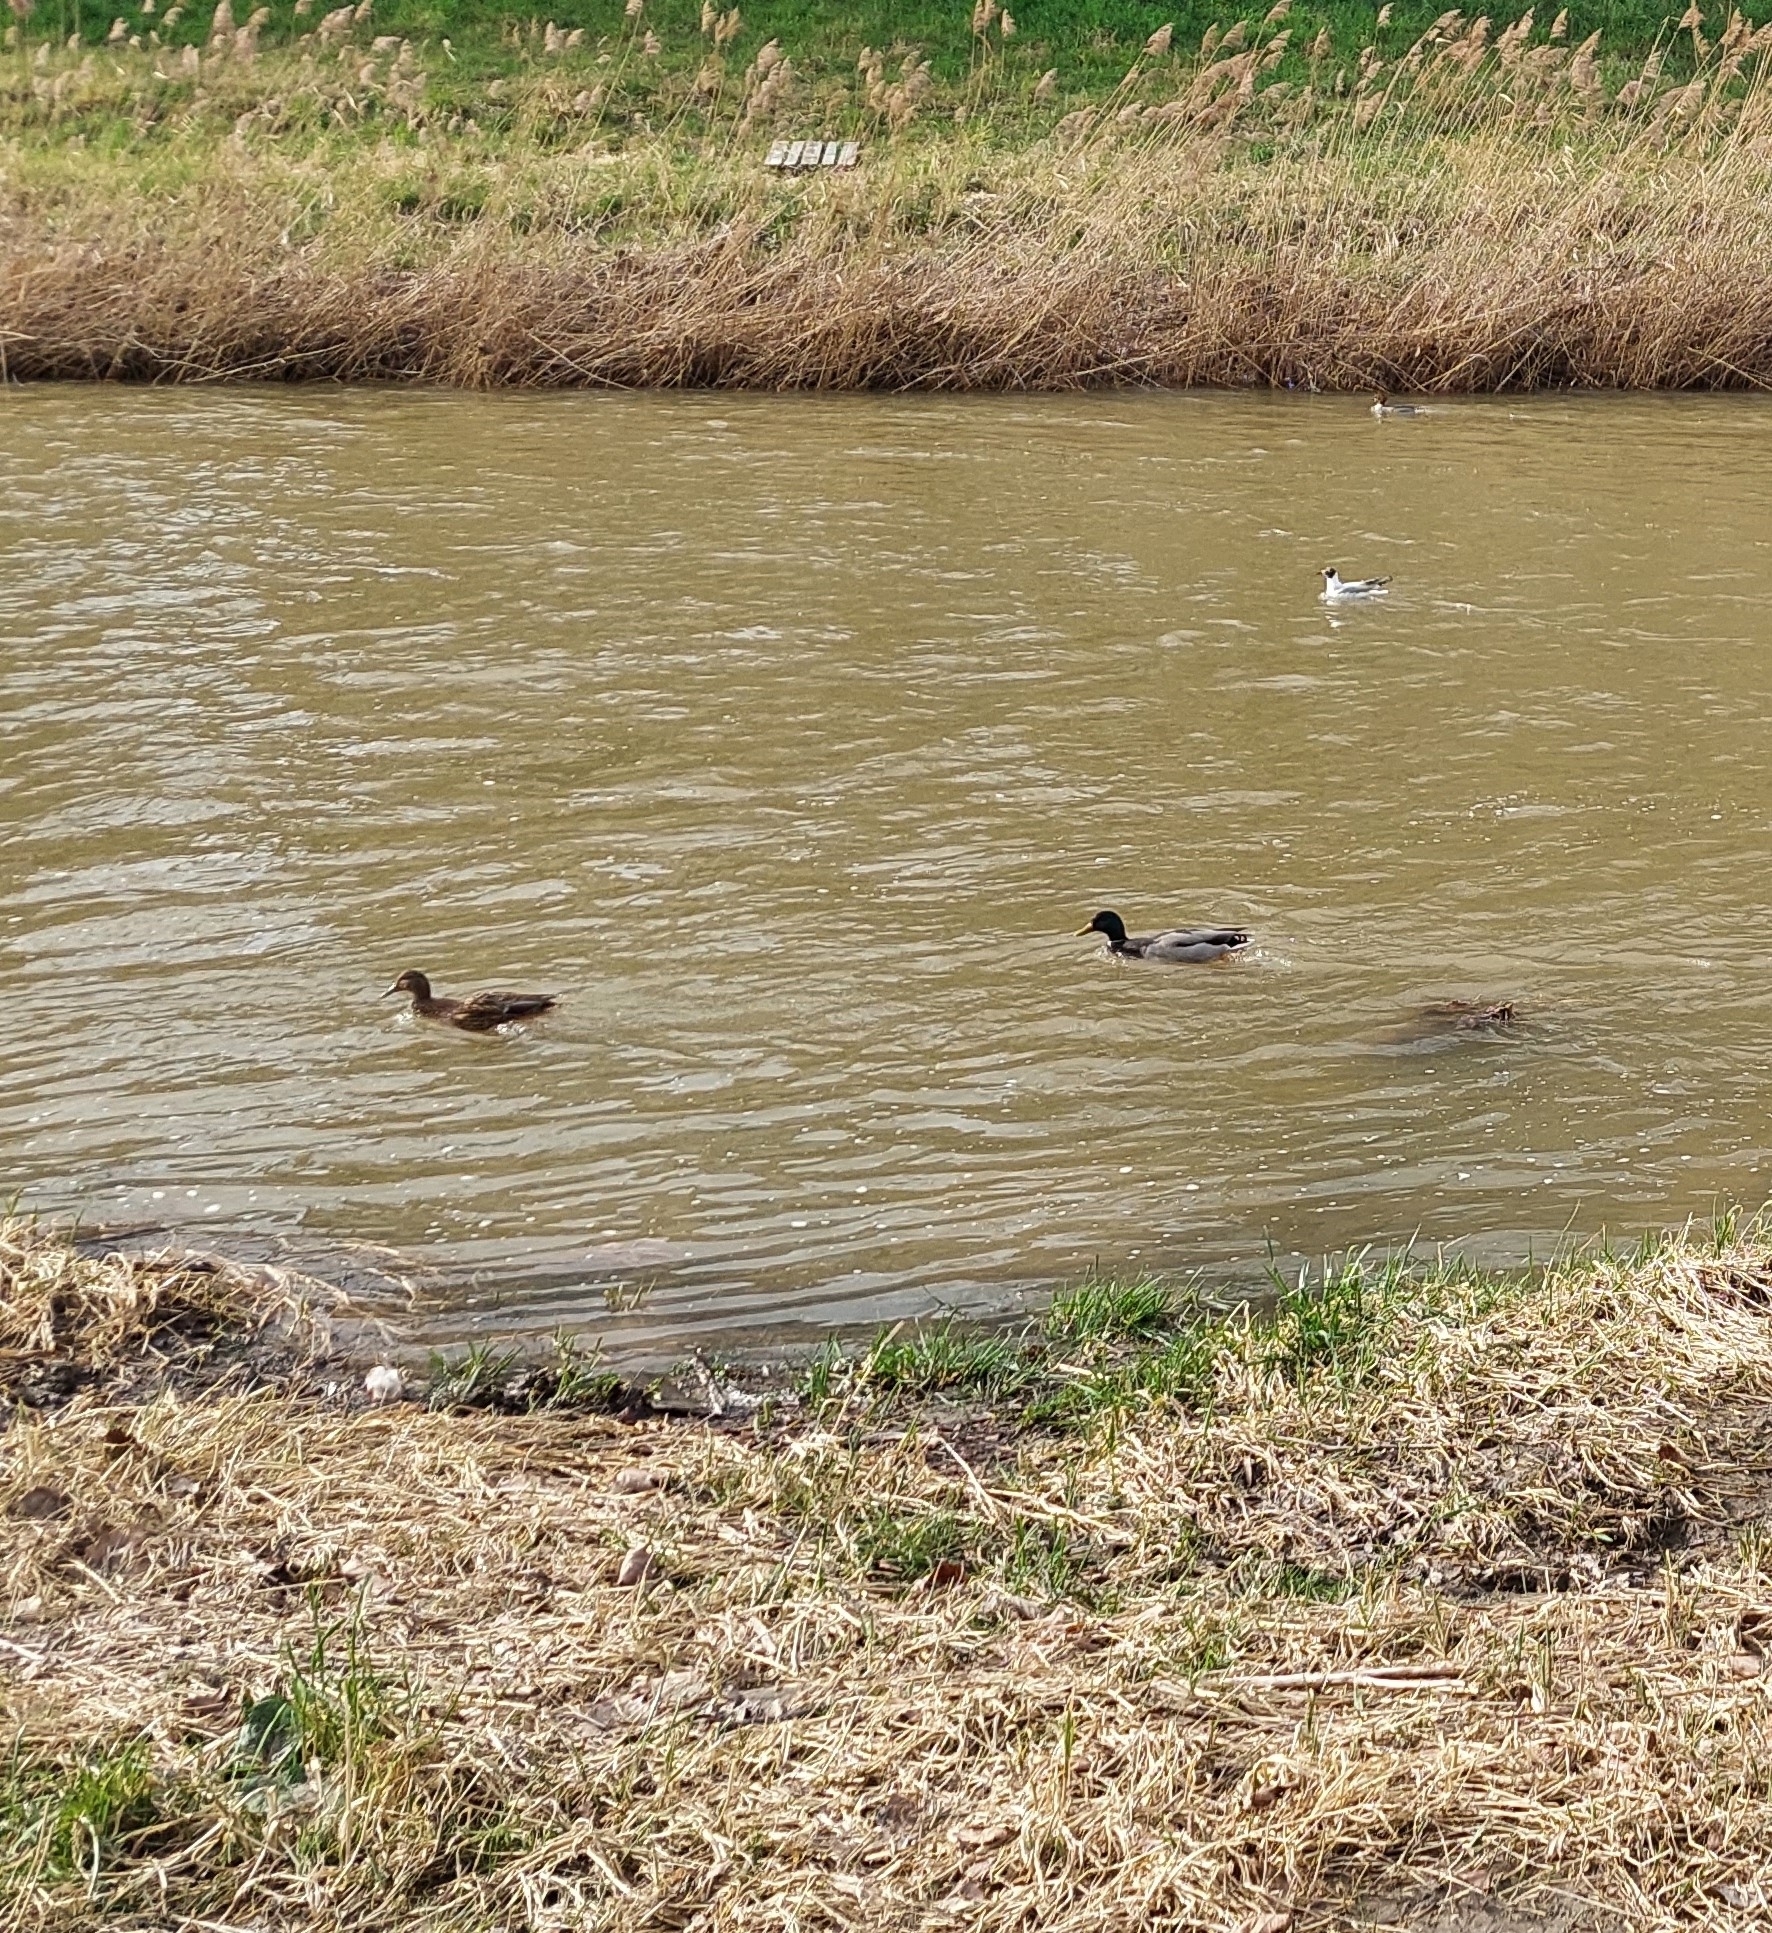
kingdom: Animalia
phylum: Chordata
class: Aves
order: Anseriformes
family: Anatidae
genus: Anas
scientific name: Anas platyrhynchos
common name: Mallard
